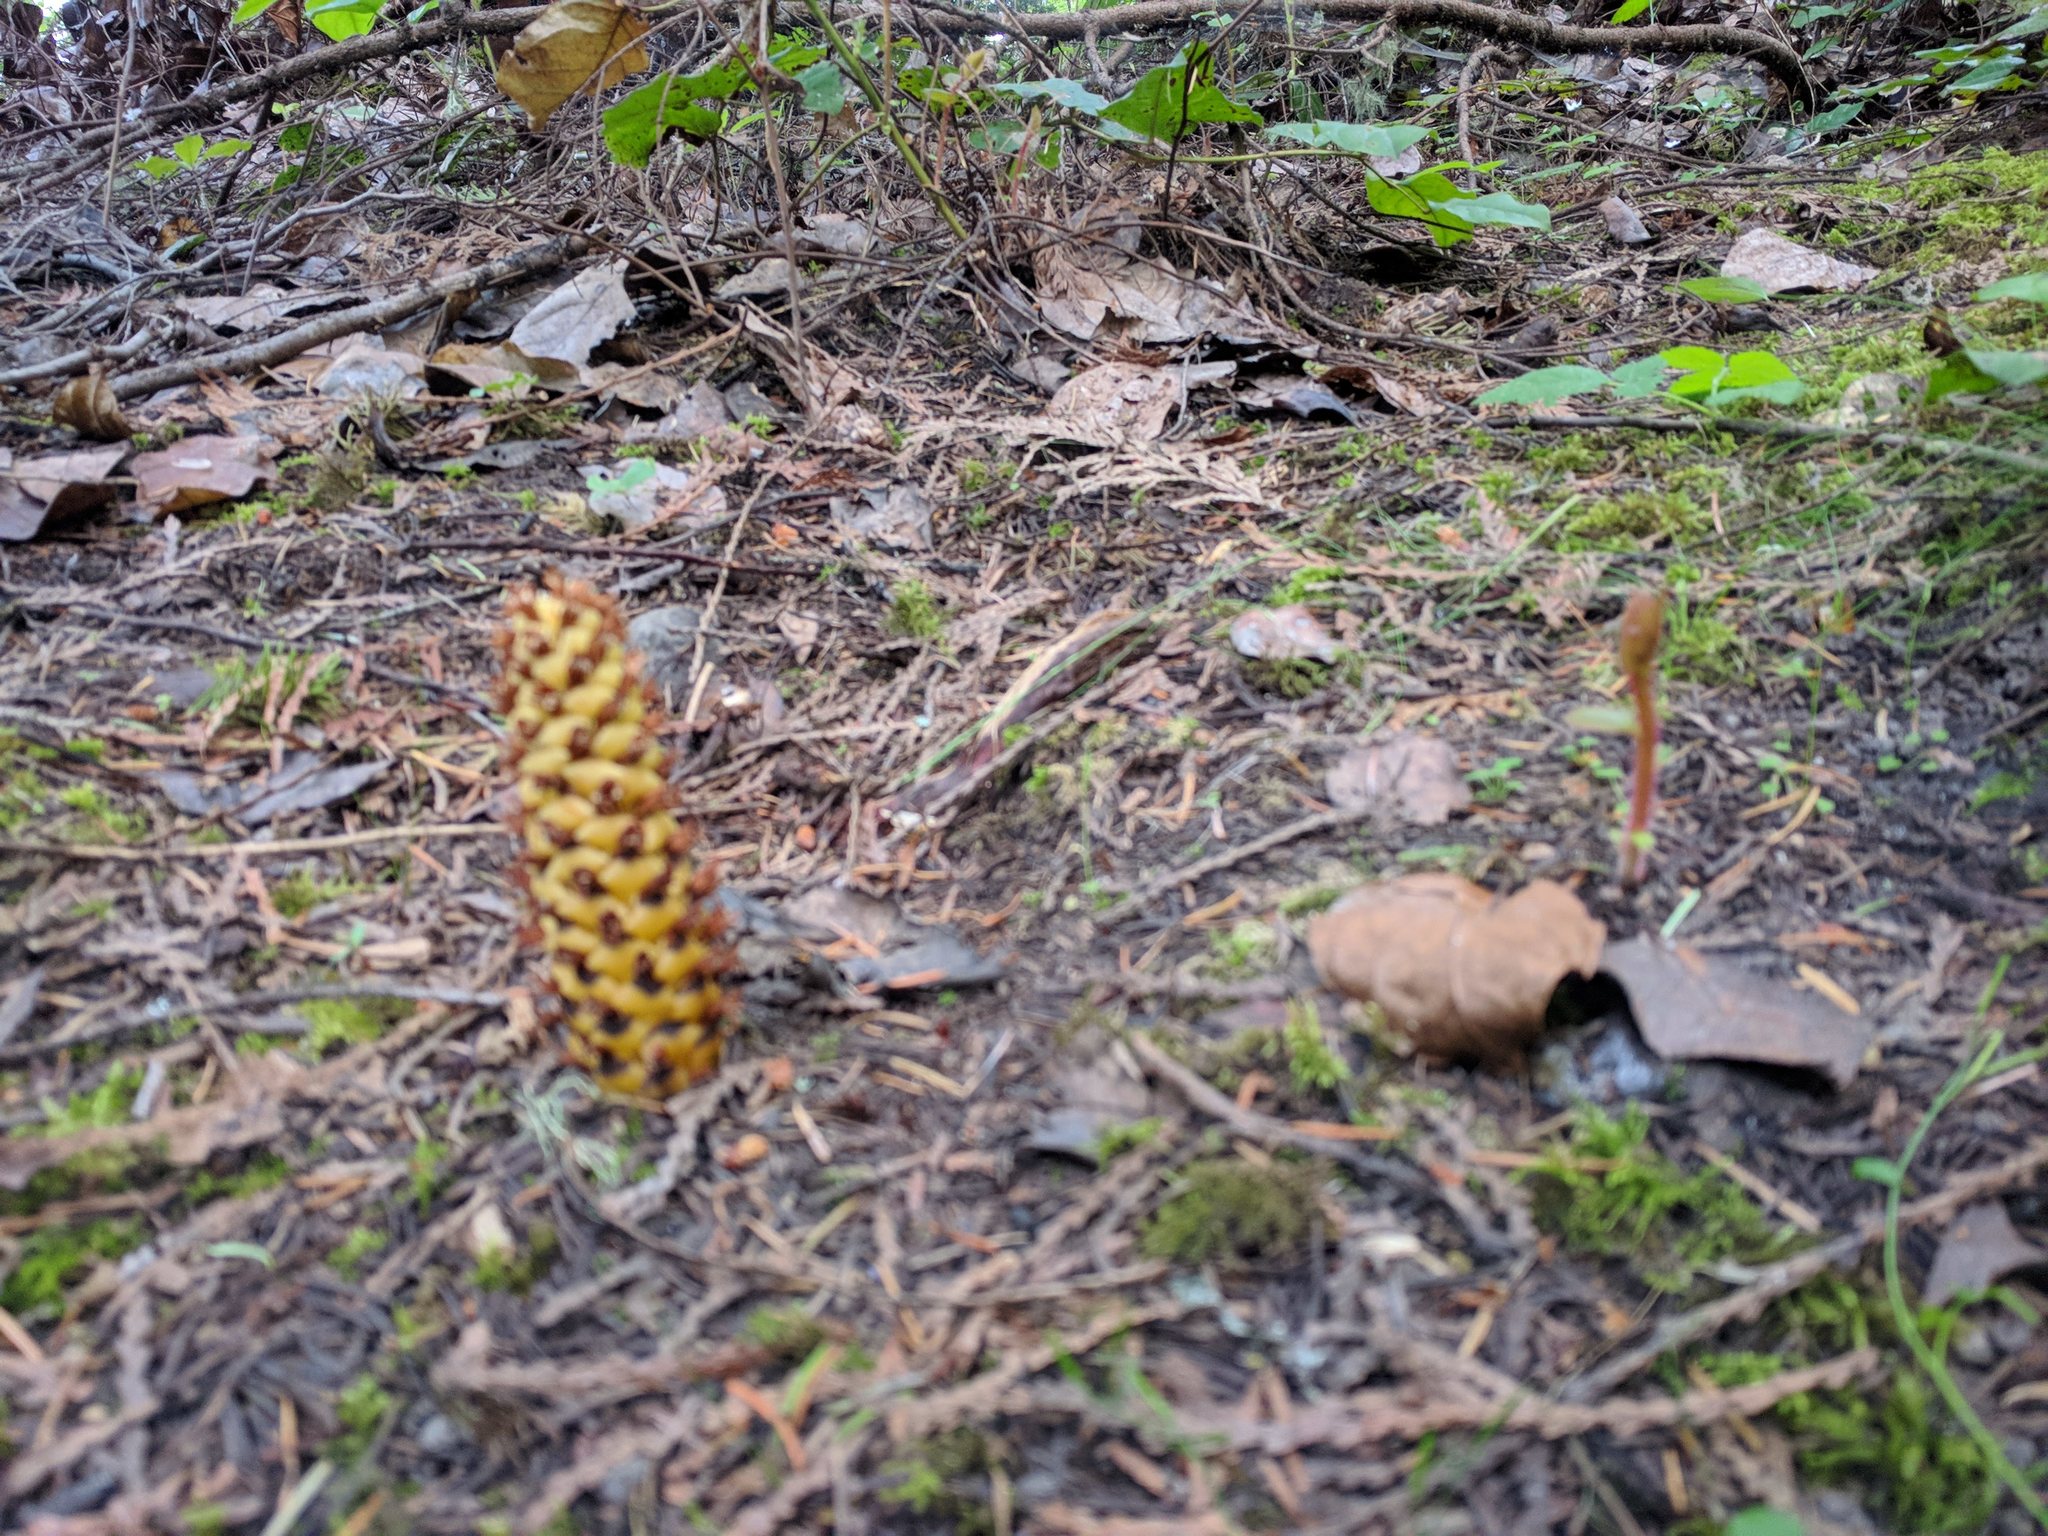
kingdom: Plantae
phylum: Tracheophyta
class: Magnoliopsida
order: Lamiales
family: Orobanchaceae
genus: Kopsiopsis
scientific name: Kopsiopsis hookeri
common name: Hooker's groundcone
